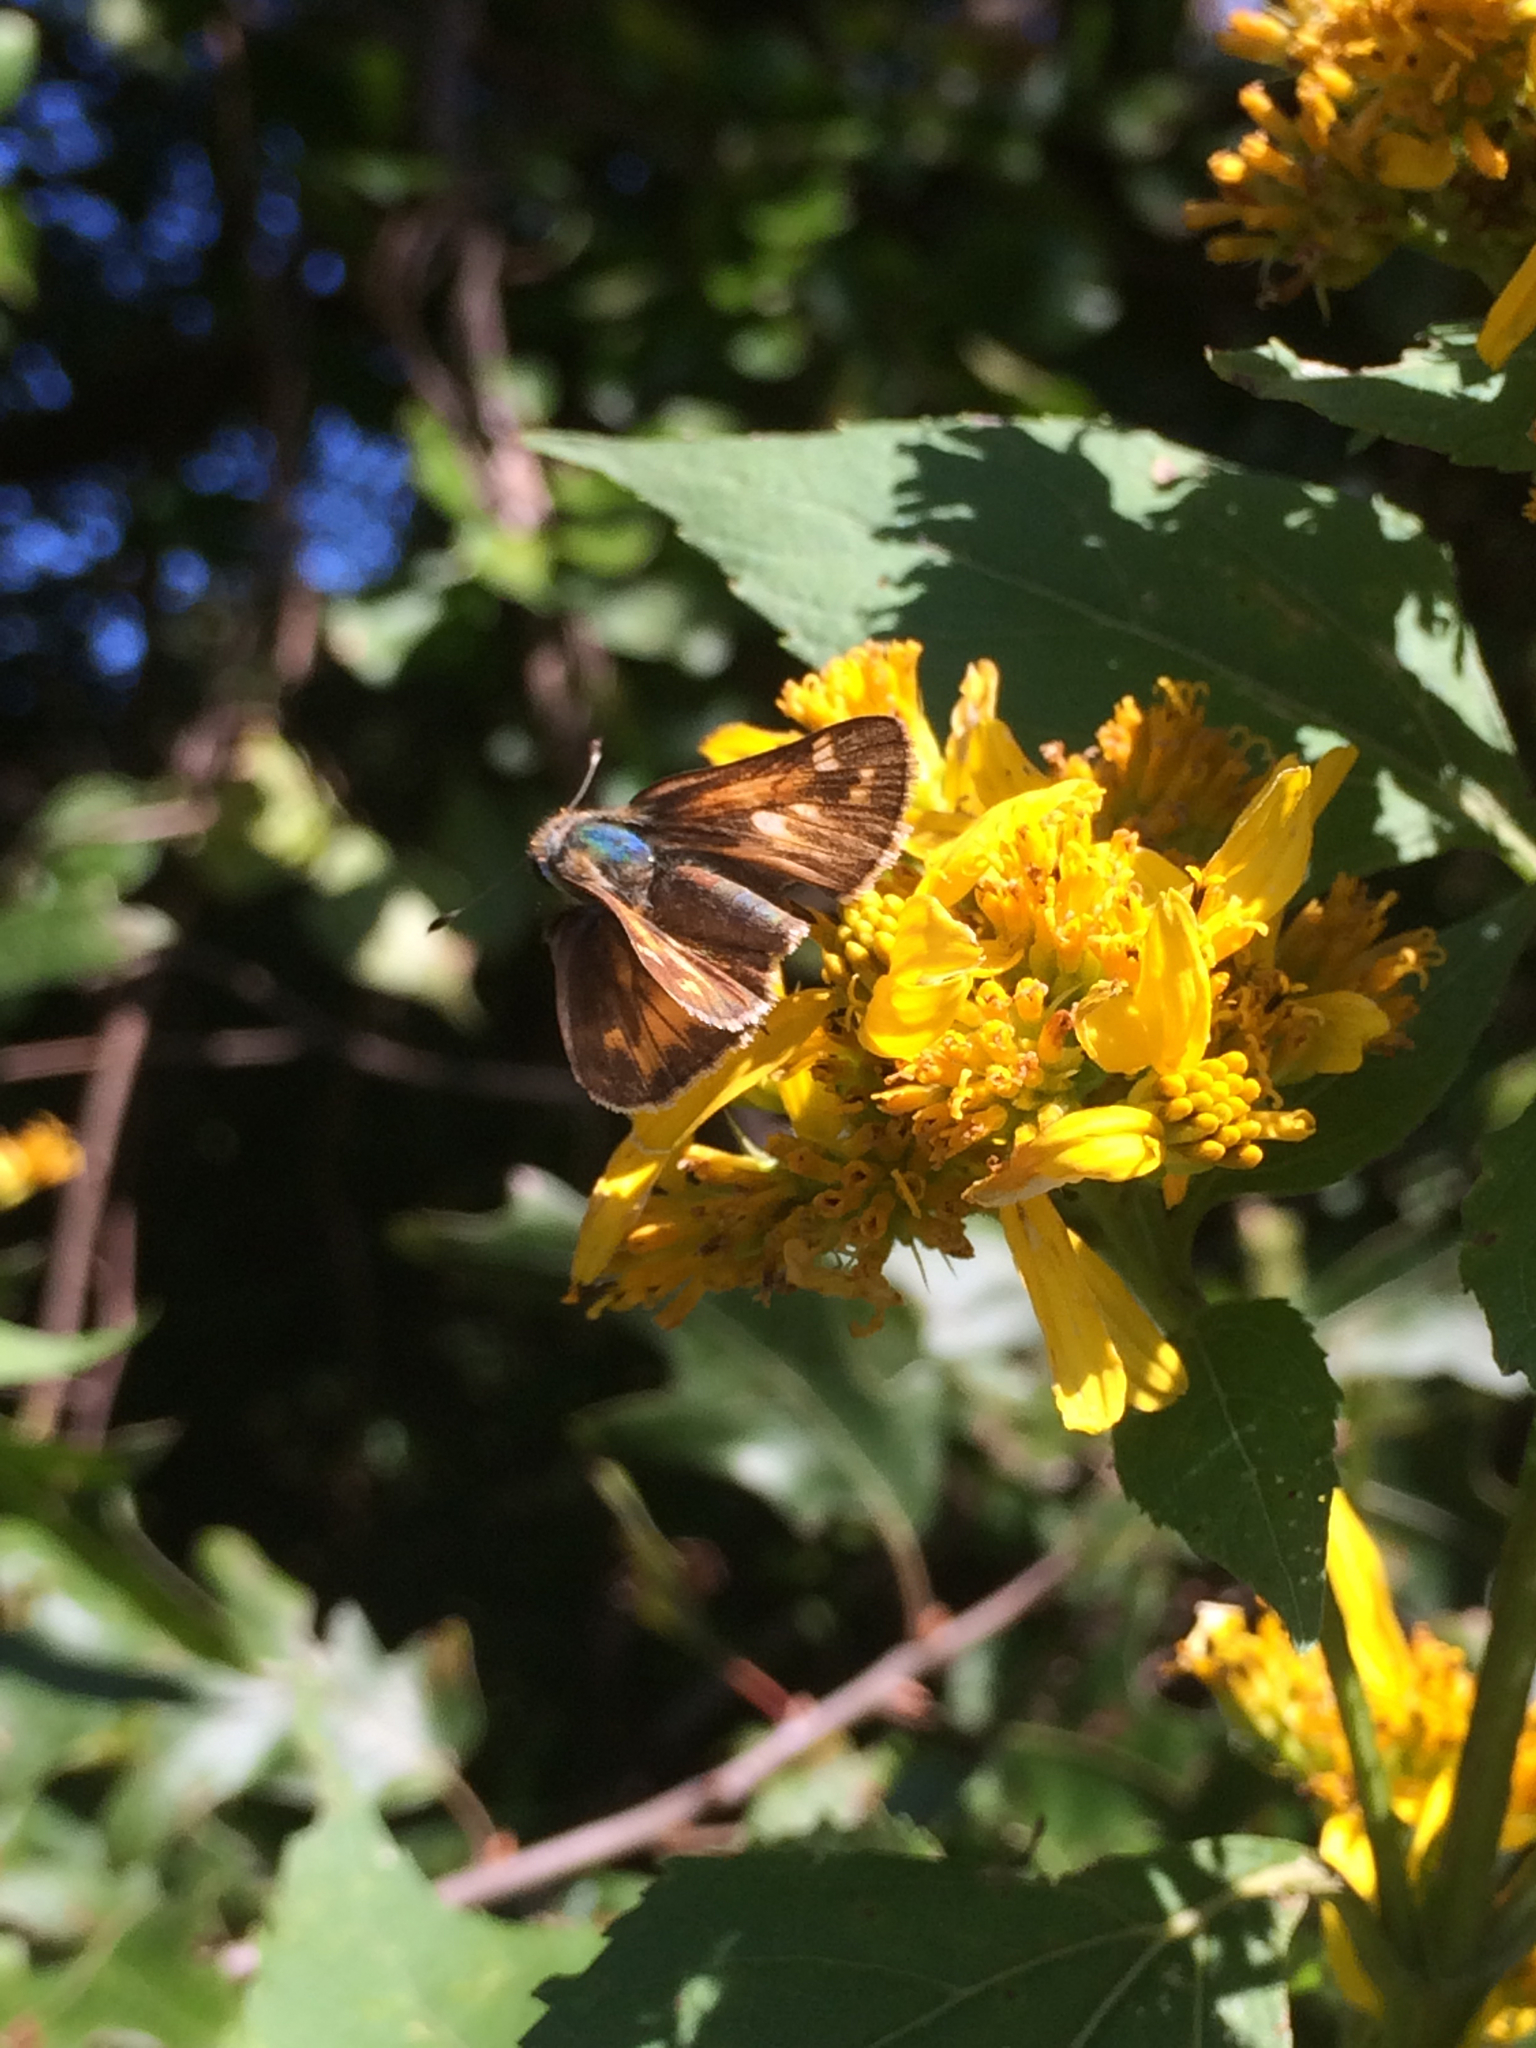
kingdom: Animalia
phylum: Arthropoda
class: Insecta
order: Lepidoptera
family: Hesperiidae
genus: Atalopedes
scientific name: Atalopedes
